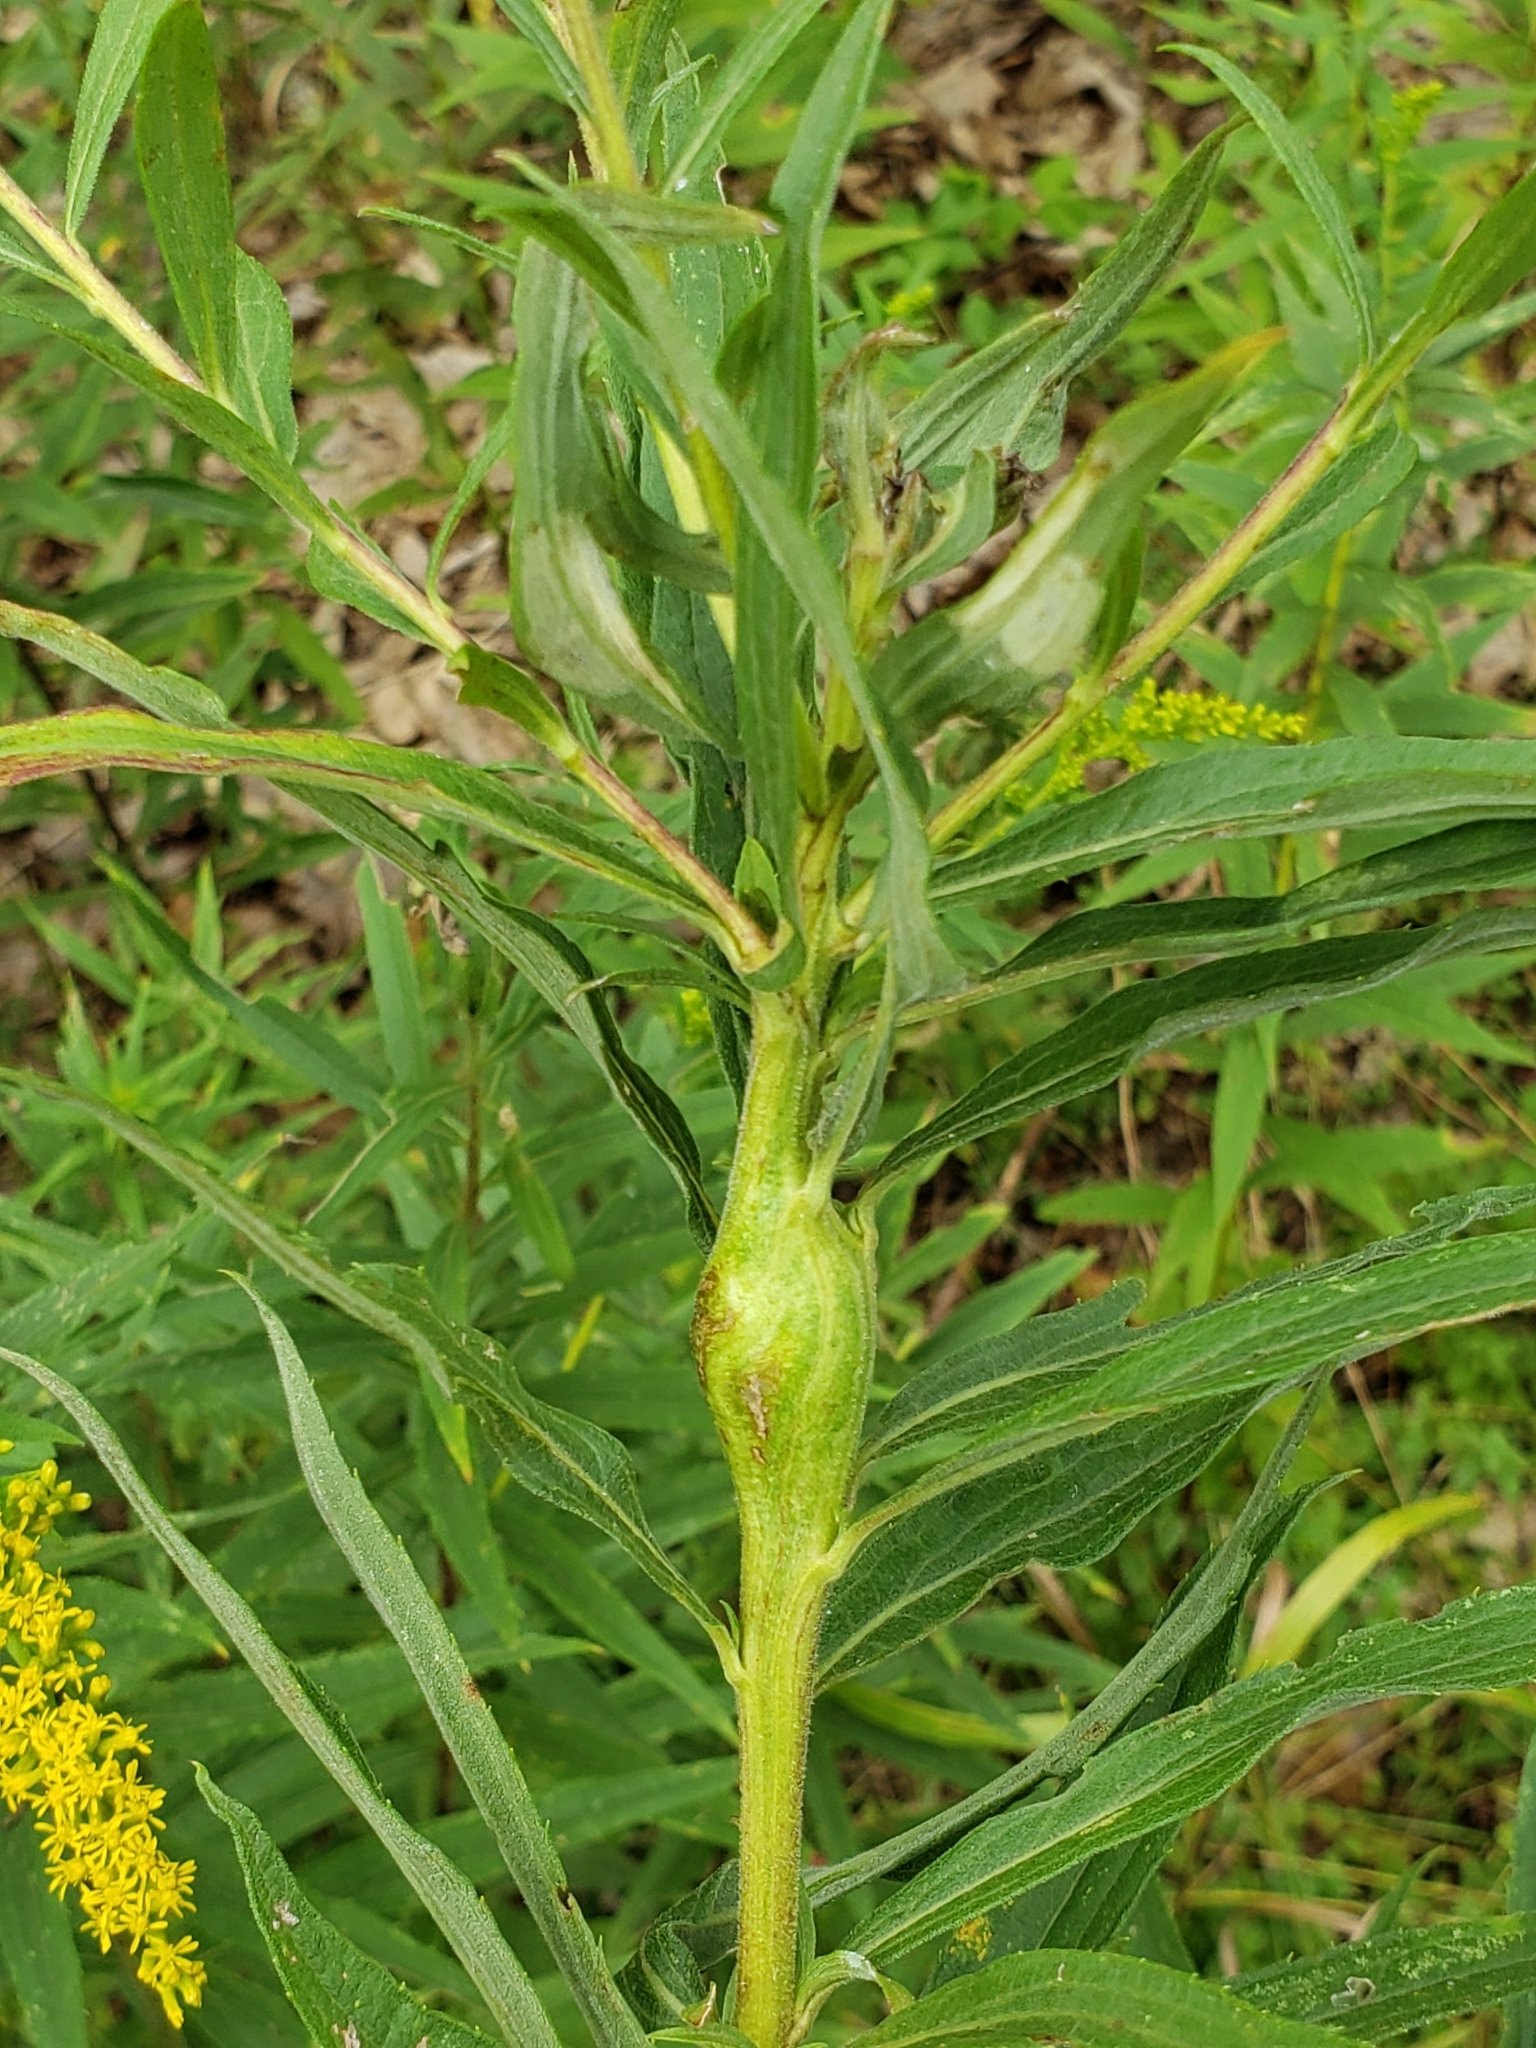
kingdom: Animalia
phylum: Arthropoda
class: Insecta
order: Lepidoptera
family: Gelechiidae
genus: Gnorimoschema
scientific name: Gnorimoschema gallaesolidaginis
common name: Goldenrod elliptical-gall moth
